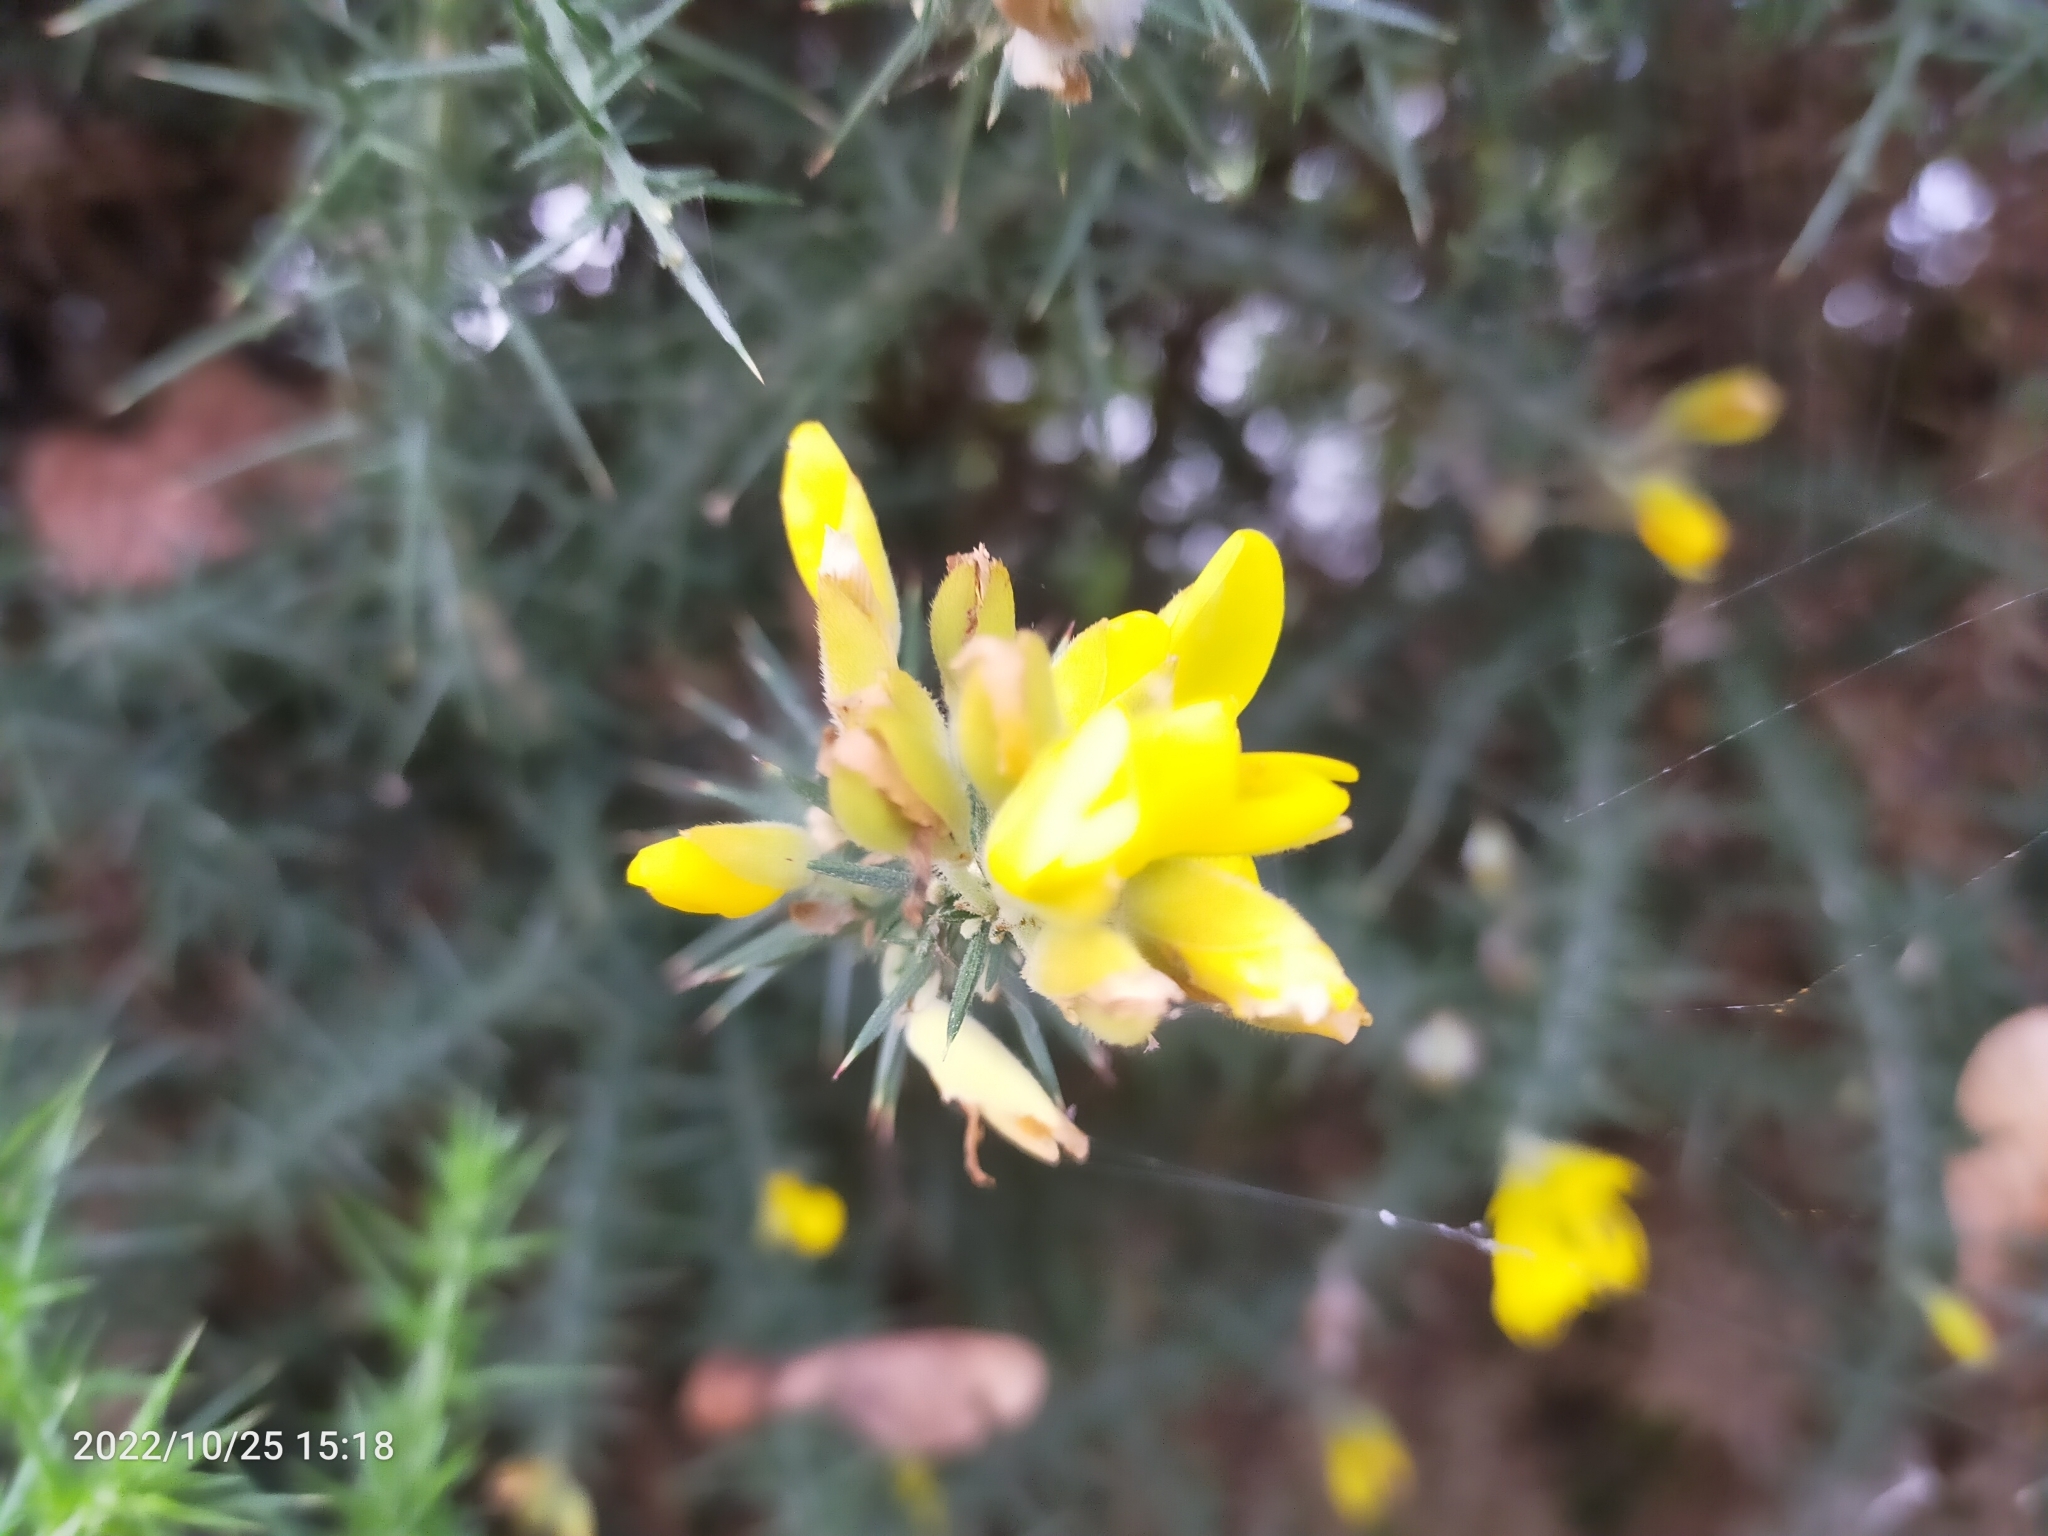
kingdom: Plantae
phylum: Tracheophyta
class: Magnoliopsida
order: Fabales
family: Fabaceae
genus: Ulex
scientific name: Ulex europaeus
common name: Common gorse
